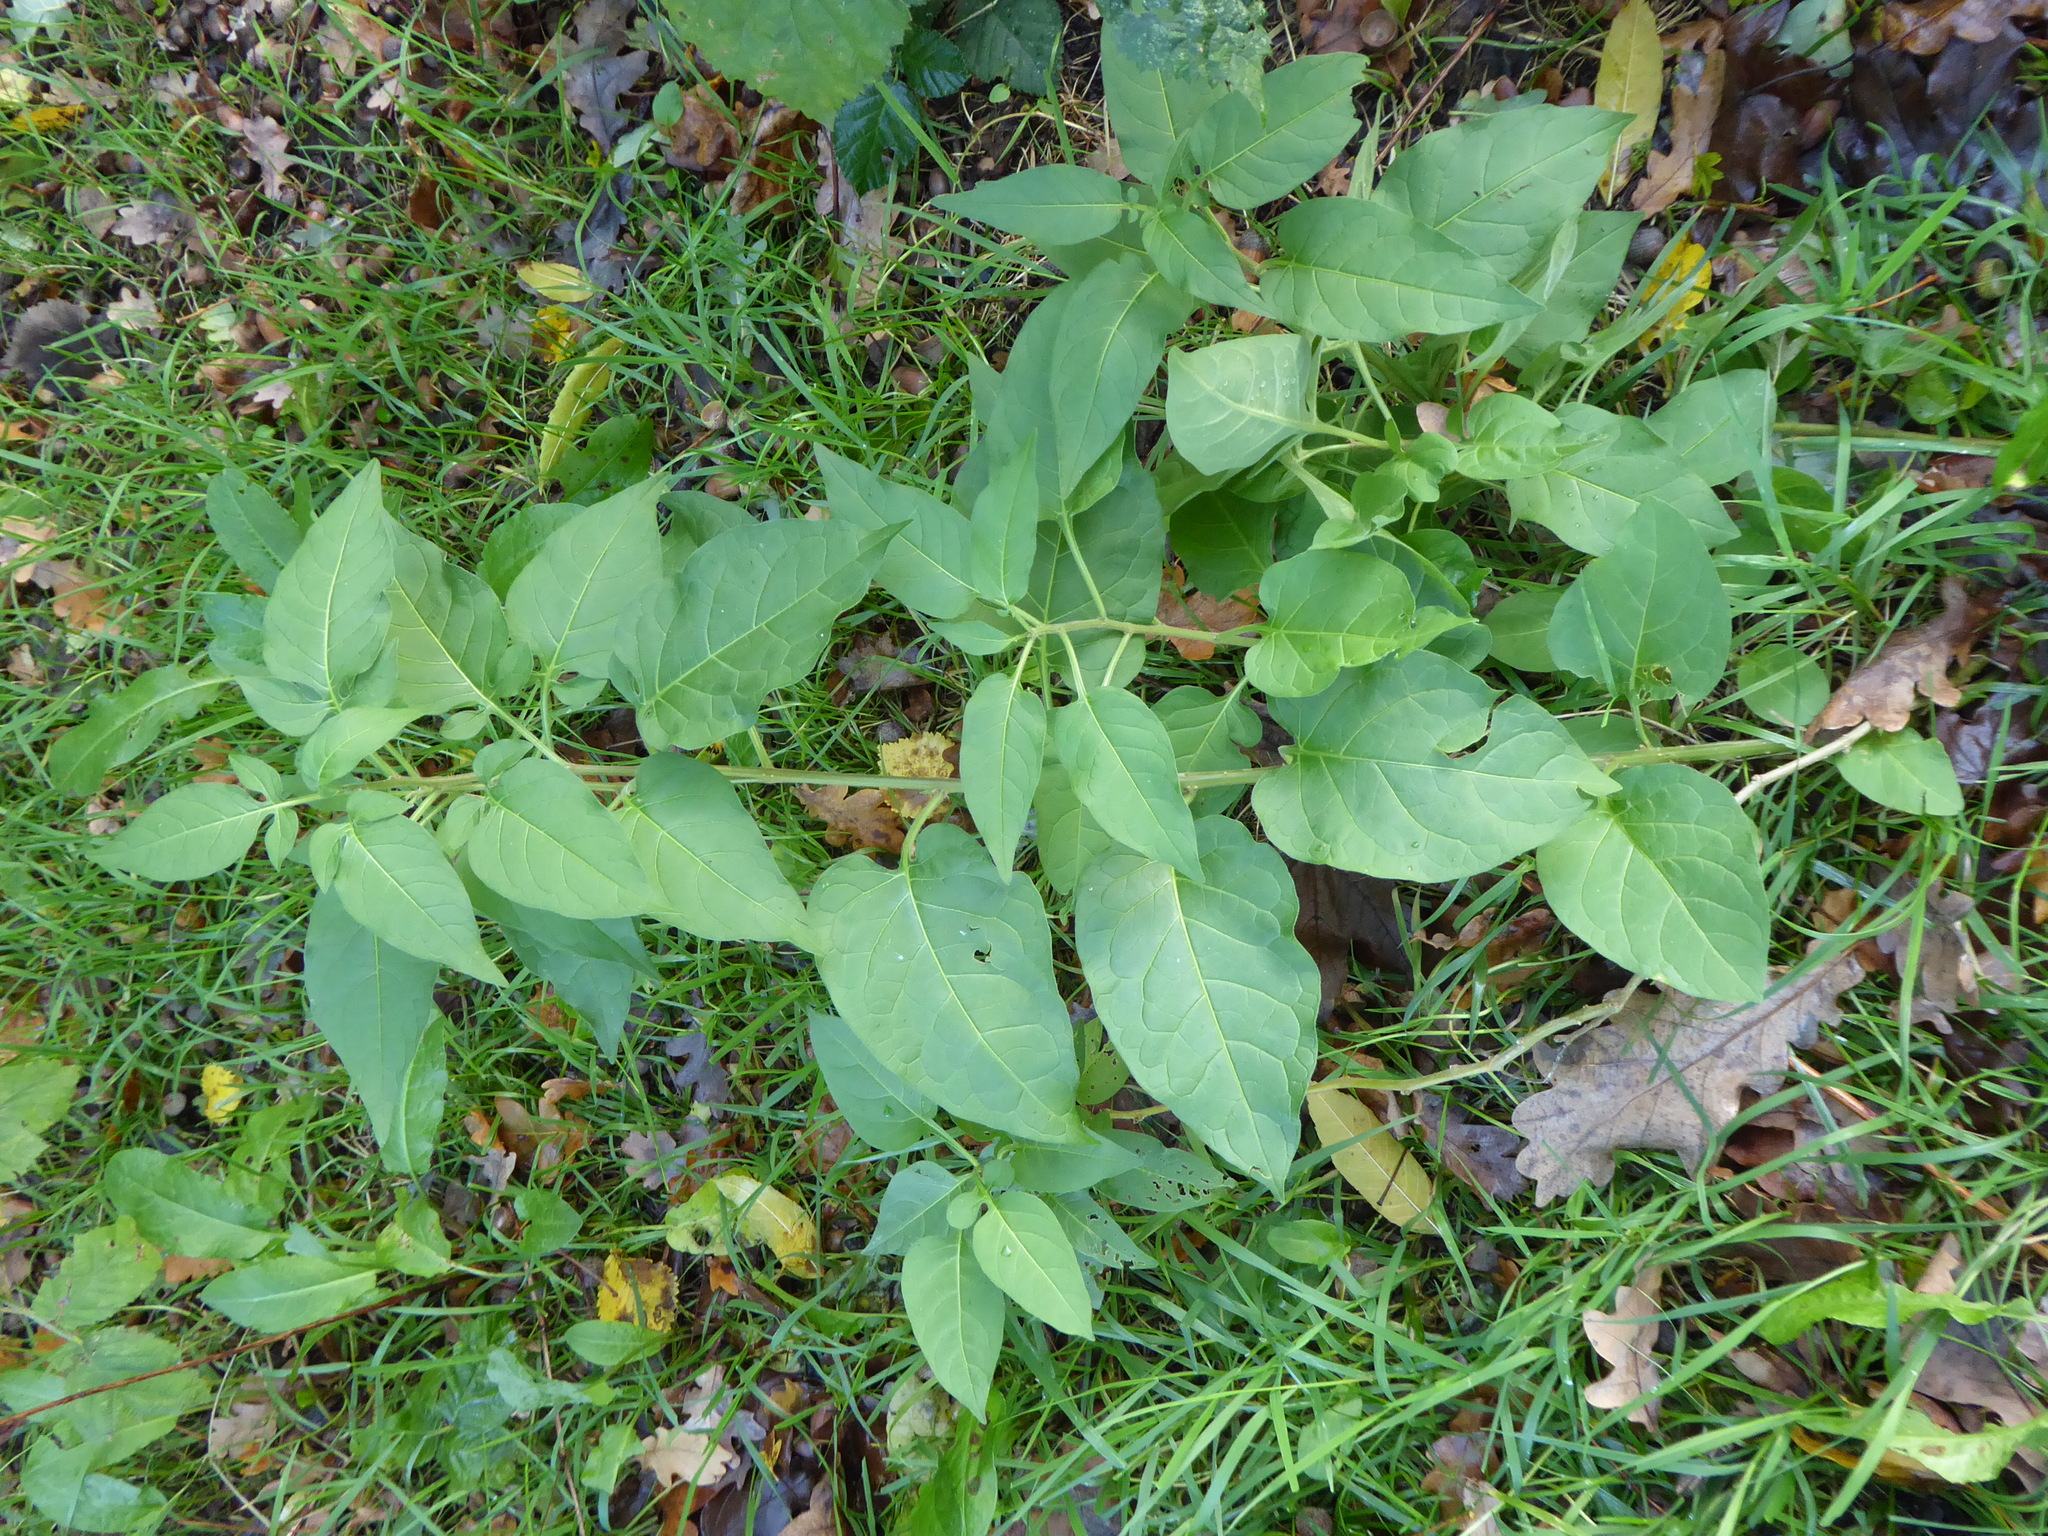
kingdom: Plantae
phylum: Tracheophyta
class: Magnoliopsida
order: Solanales
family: Solanaceae
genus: Solanum
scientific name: Solanum dulcamara
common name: Climbing nightshade
